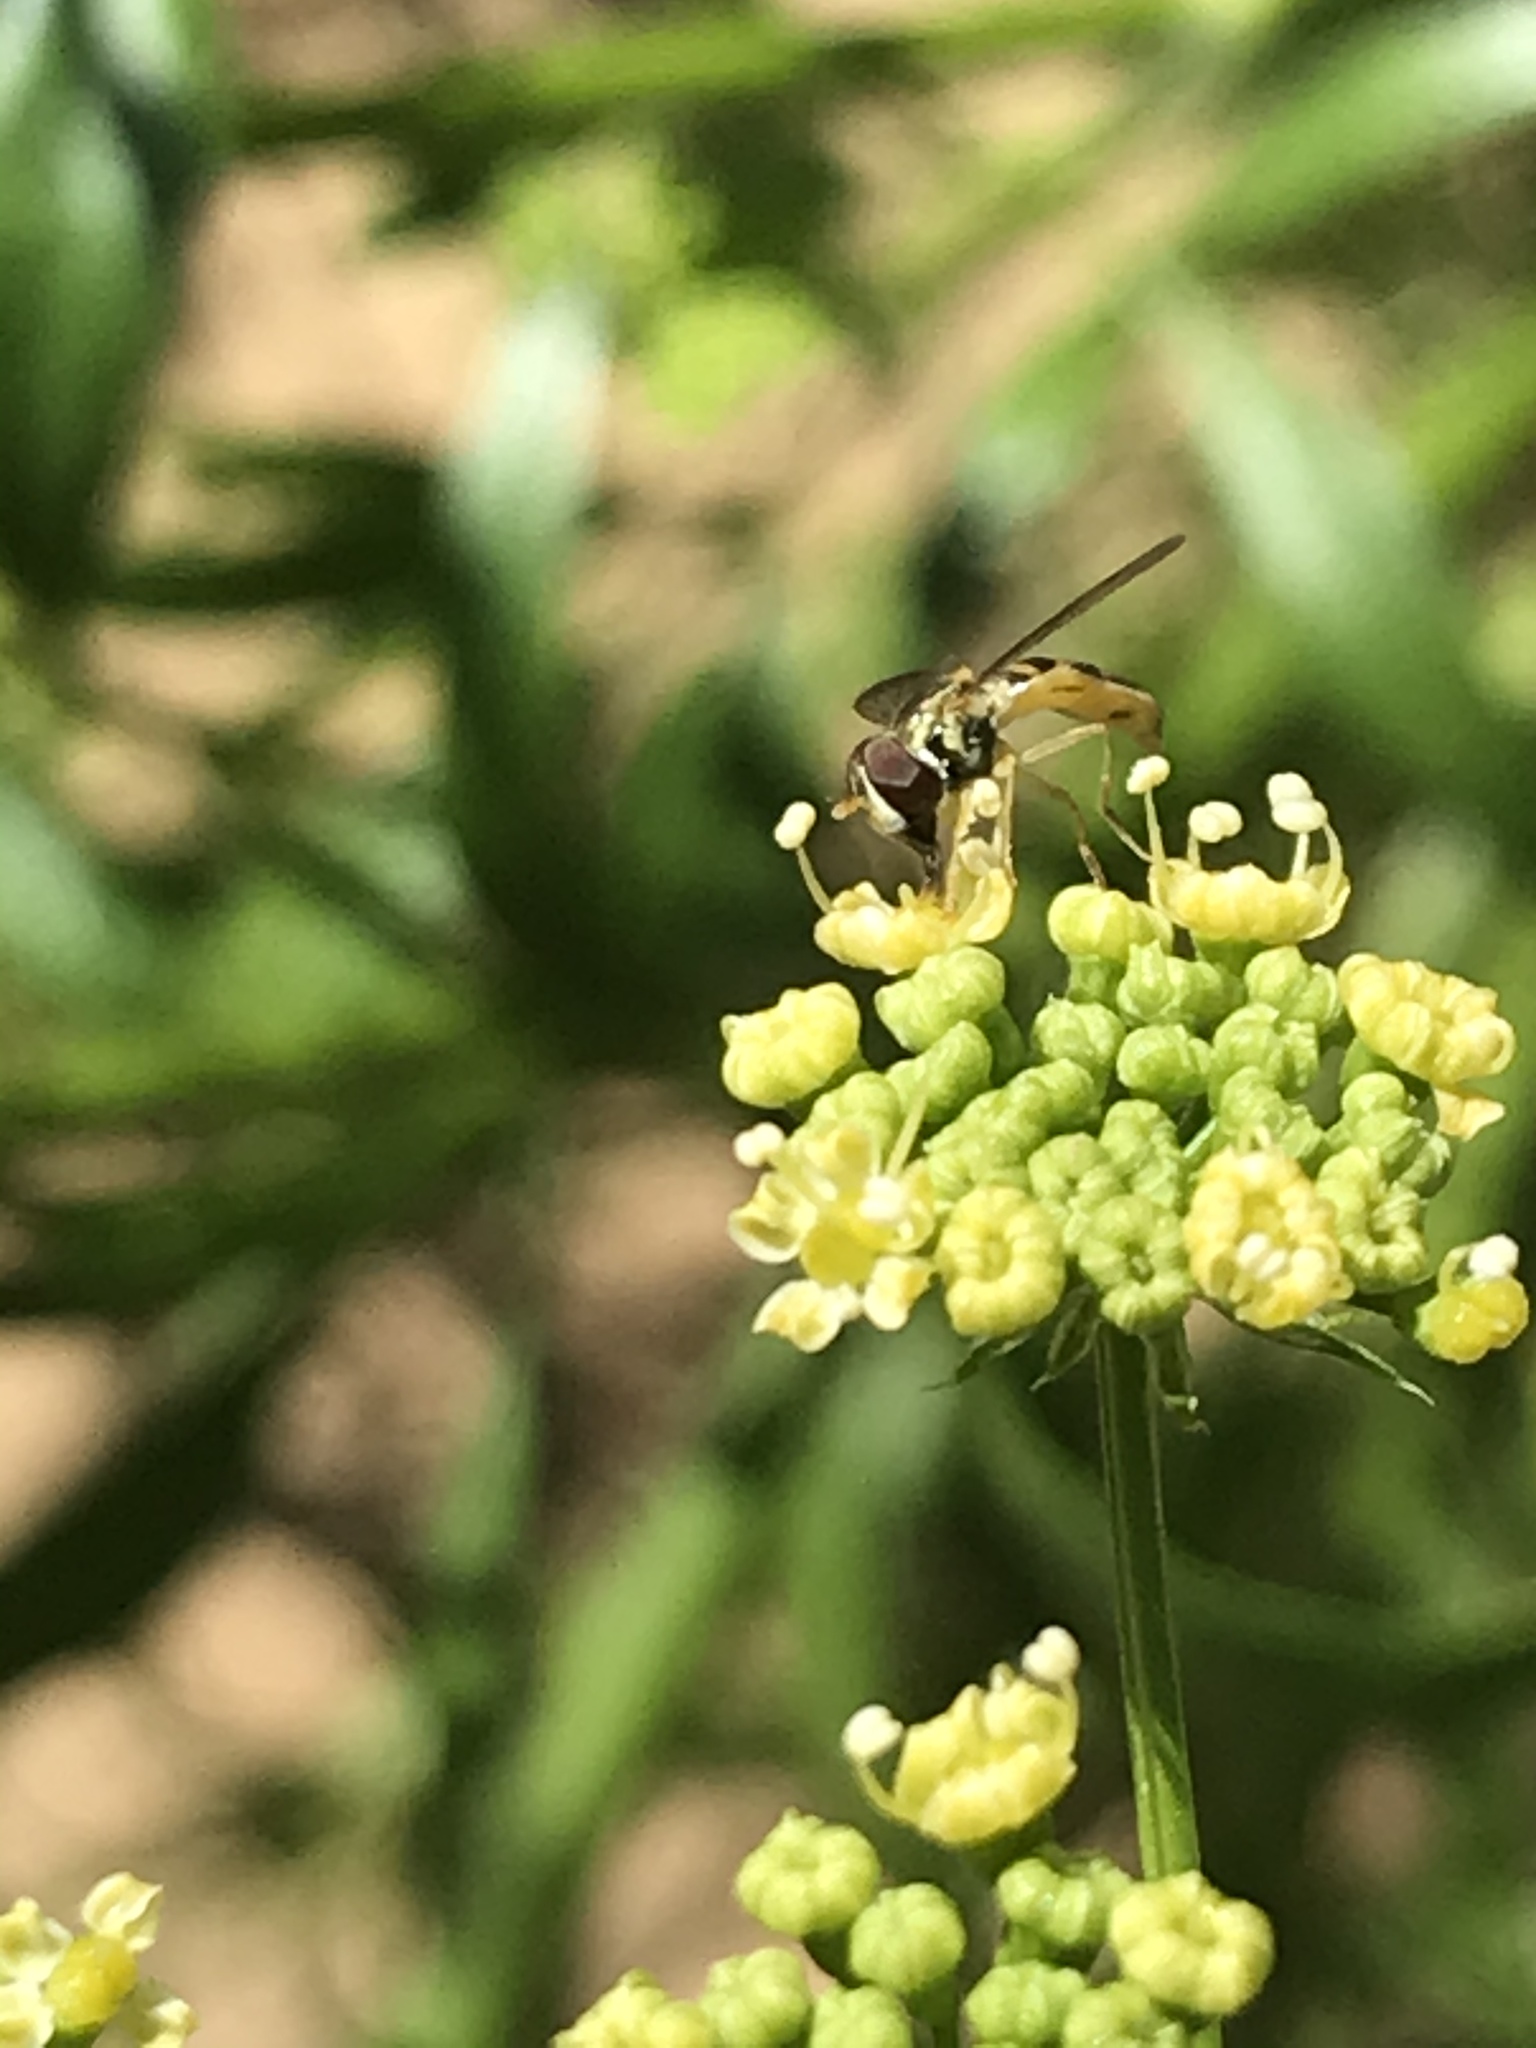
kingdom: Animalia
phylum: Arthropoda
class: Insecta
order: Diptera
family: Syrphidae
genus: Toxomerus
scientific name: Toxomerus marginatus
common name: Syrphid fly
